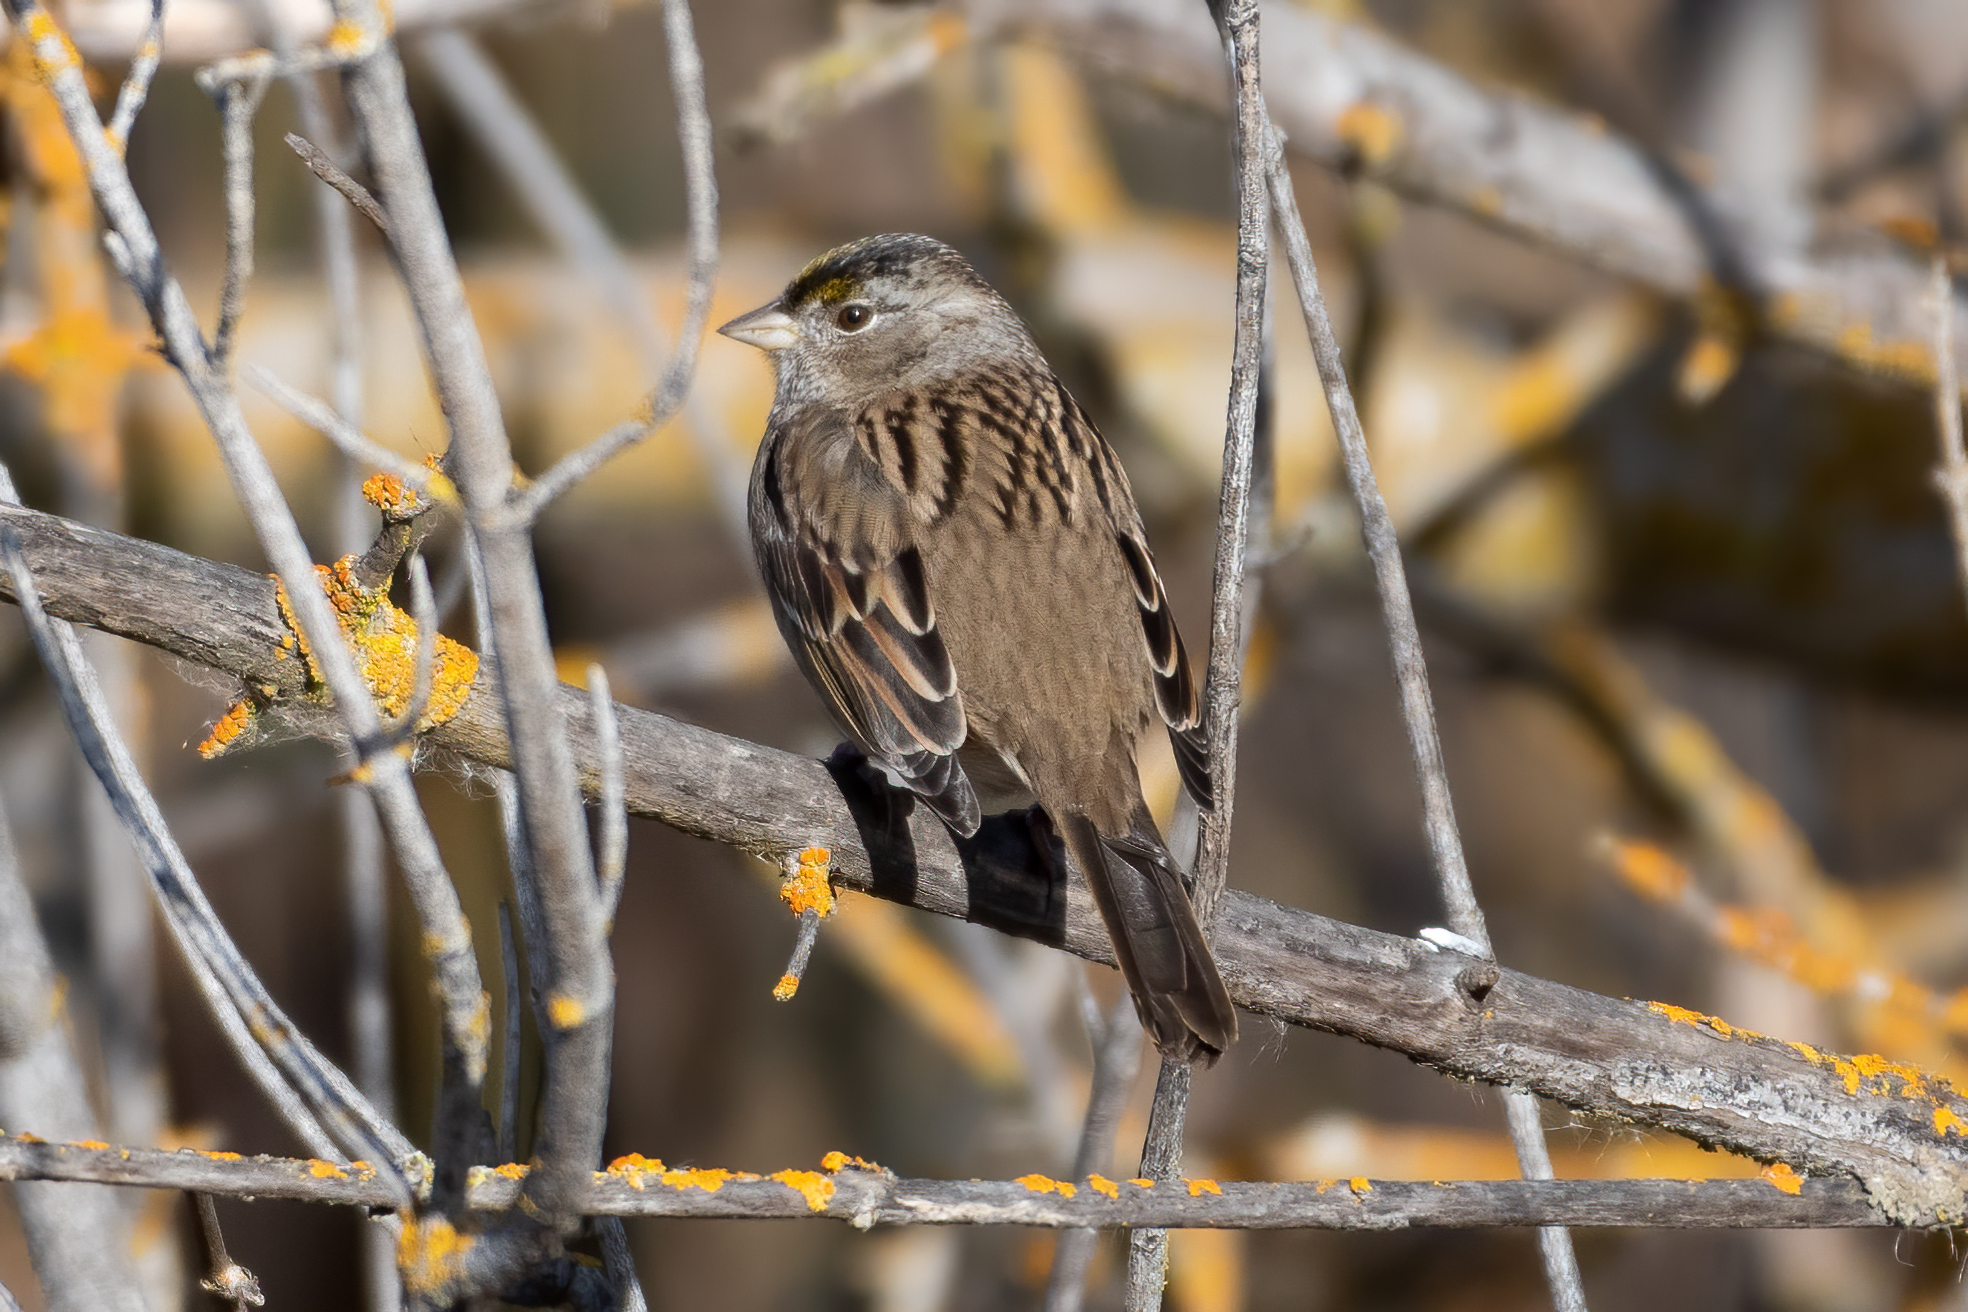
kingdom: Animalia
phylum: Chordata
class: Aves
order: Passeriformes
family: Passerellidae
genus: Zonotrichia
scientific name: Zonotrichia atricapilla
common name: Golden-crowned sparrow
